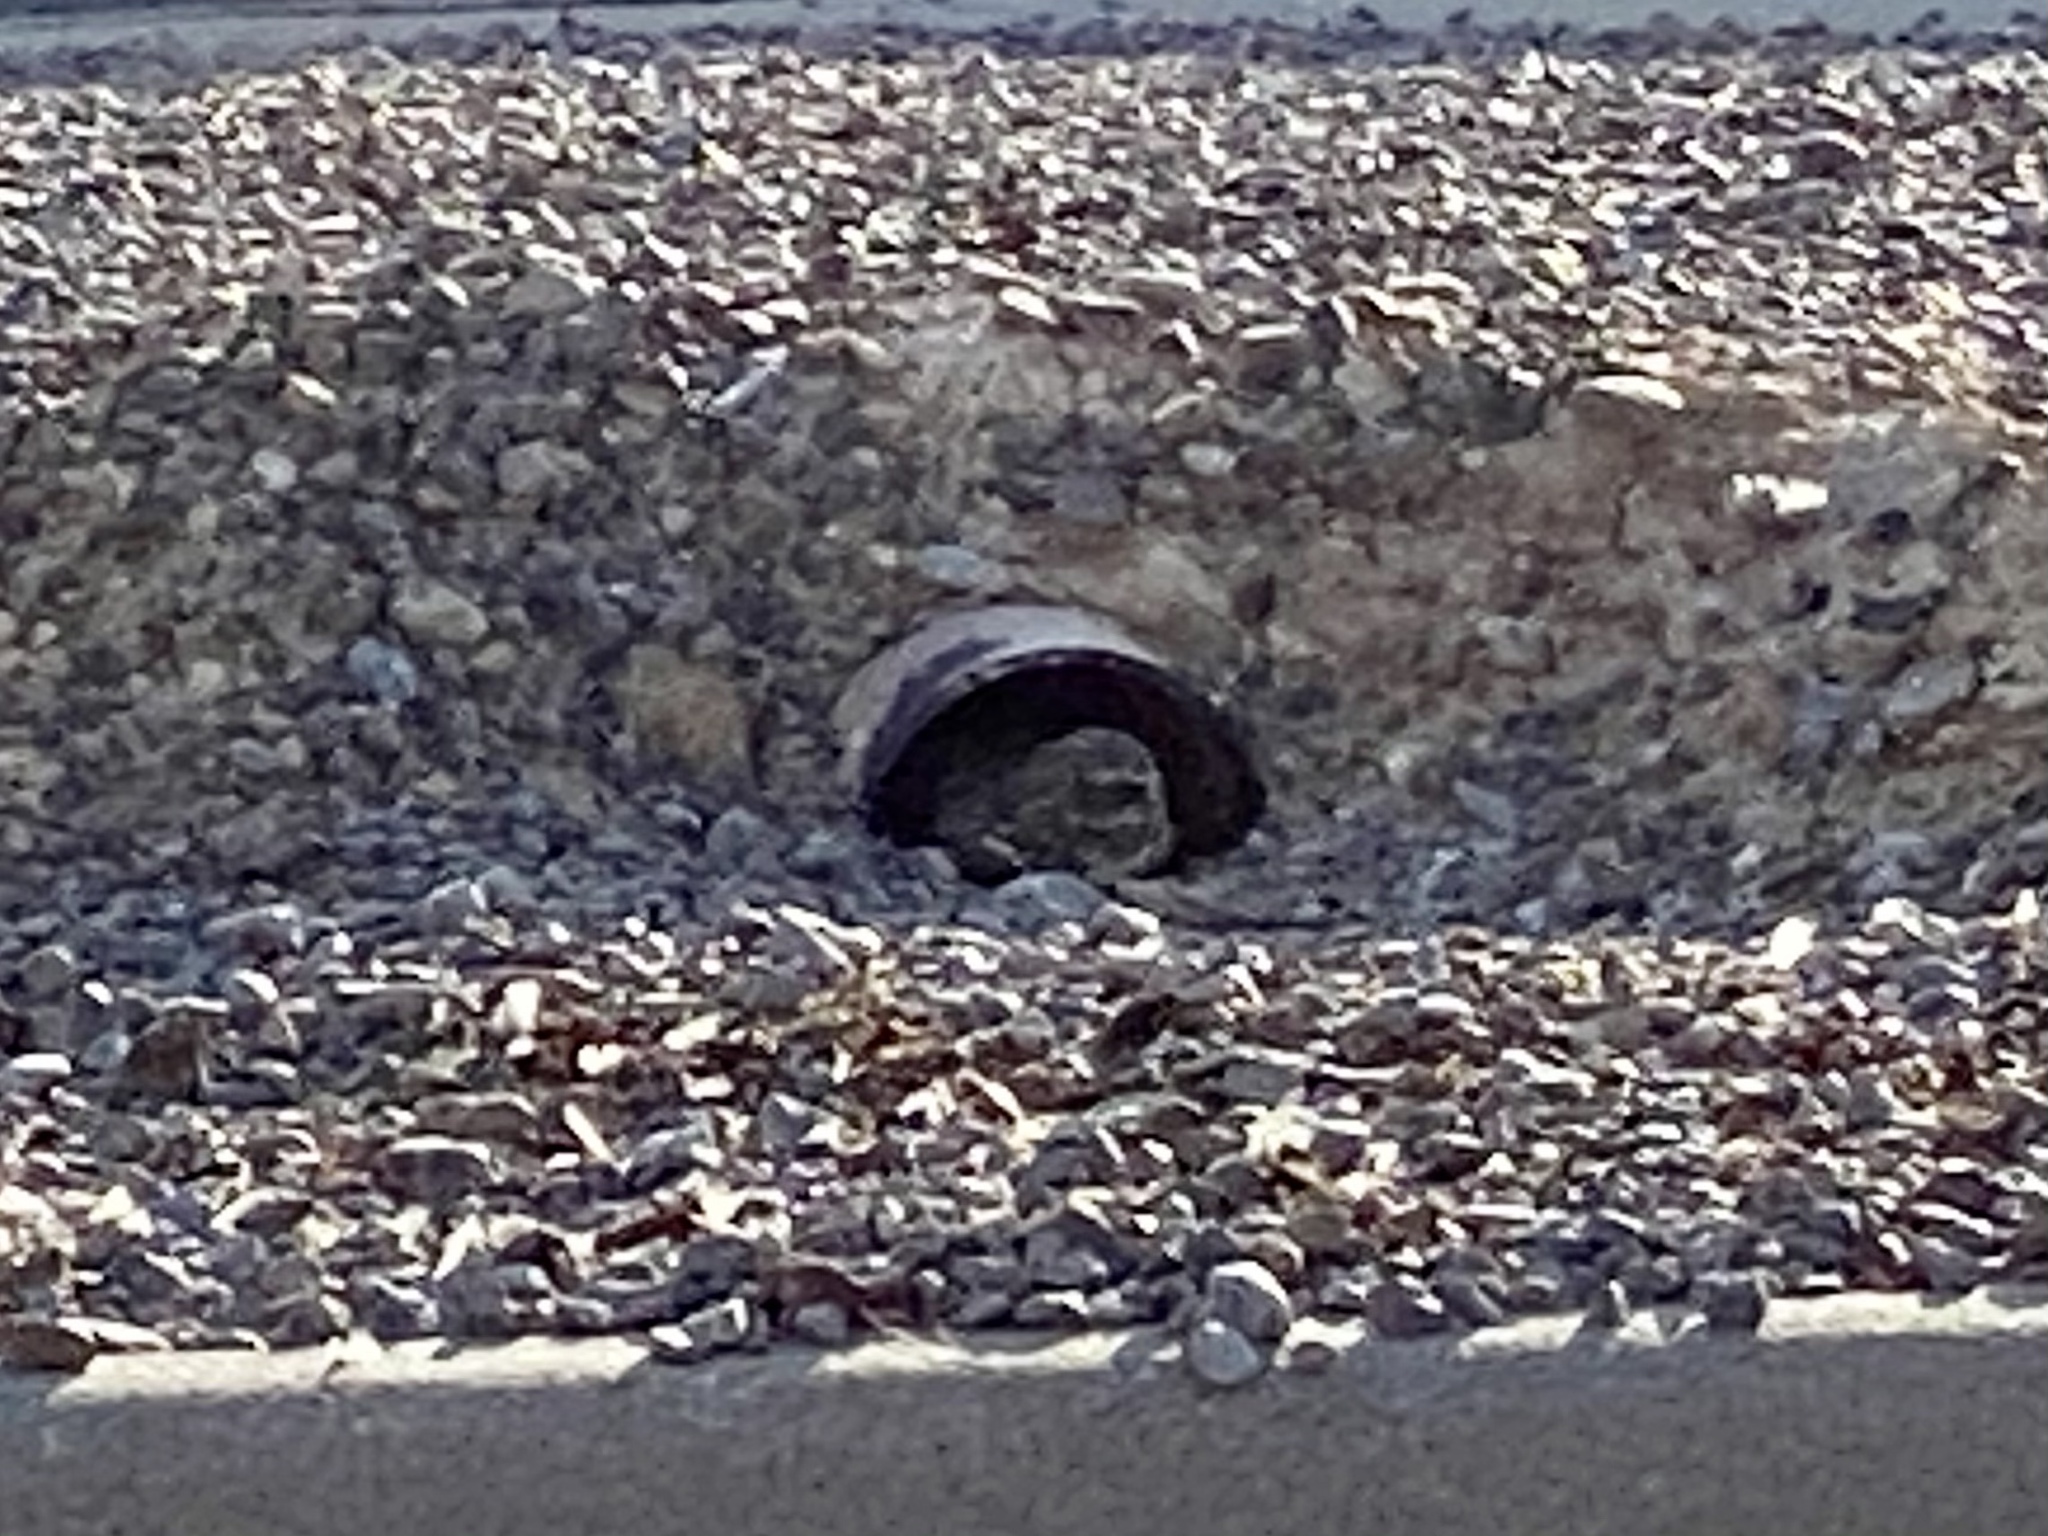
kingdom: Animalia
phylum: Chordata
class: Aves
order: Strigiformes
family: Strigidae
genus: Athene
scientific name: Athene cunicularia
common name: Burrowing owl
